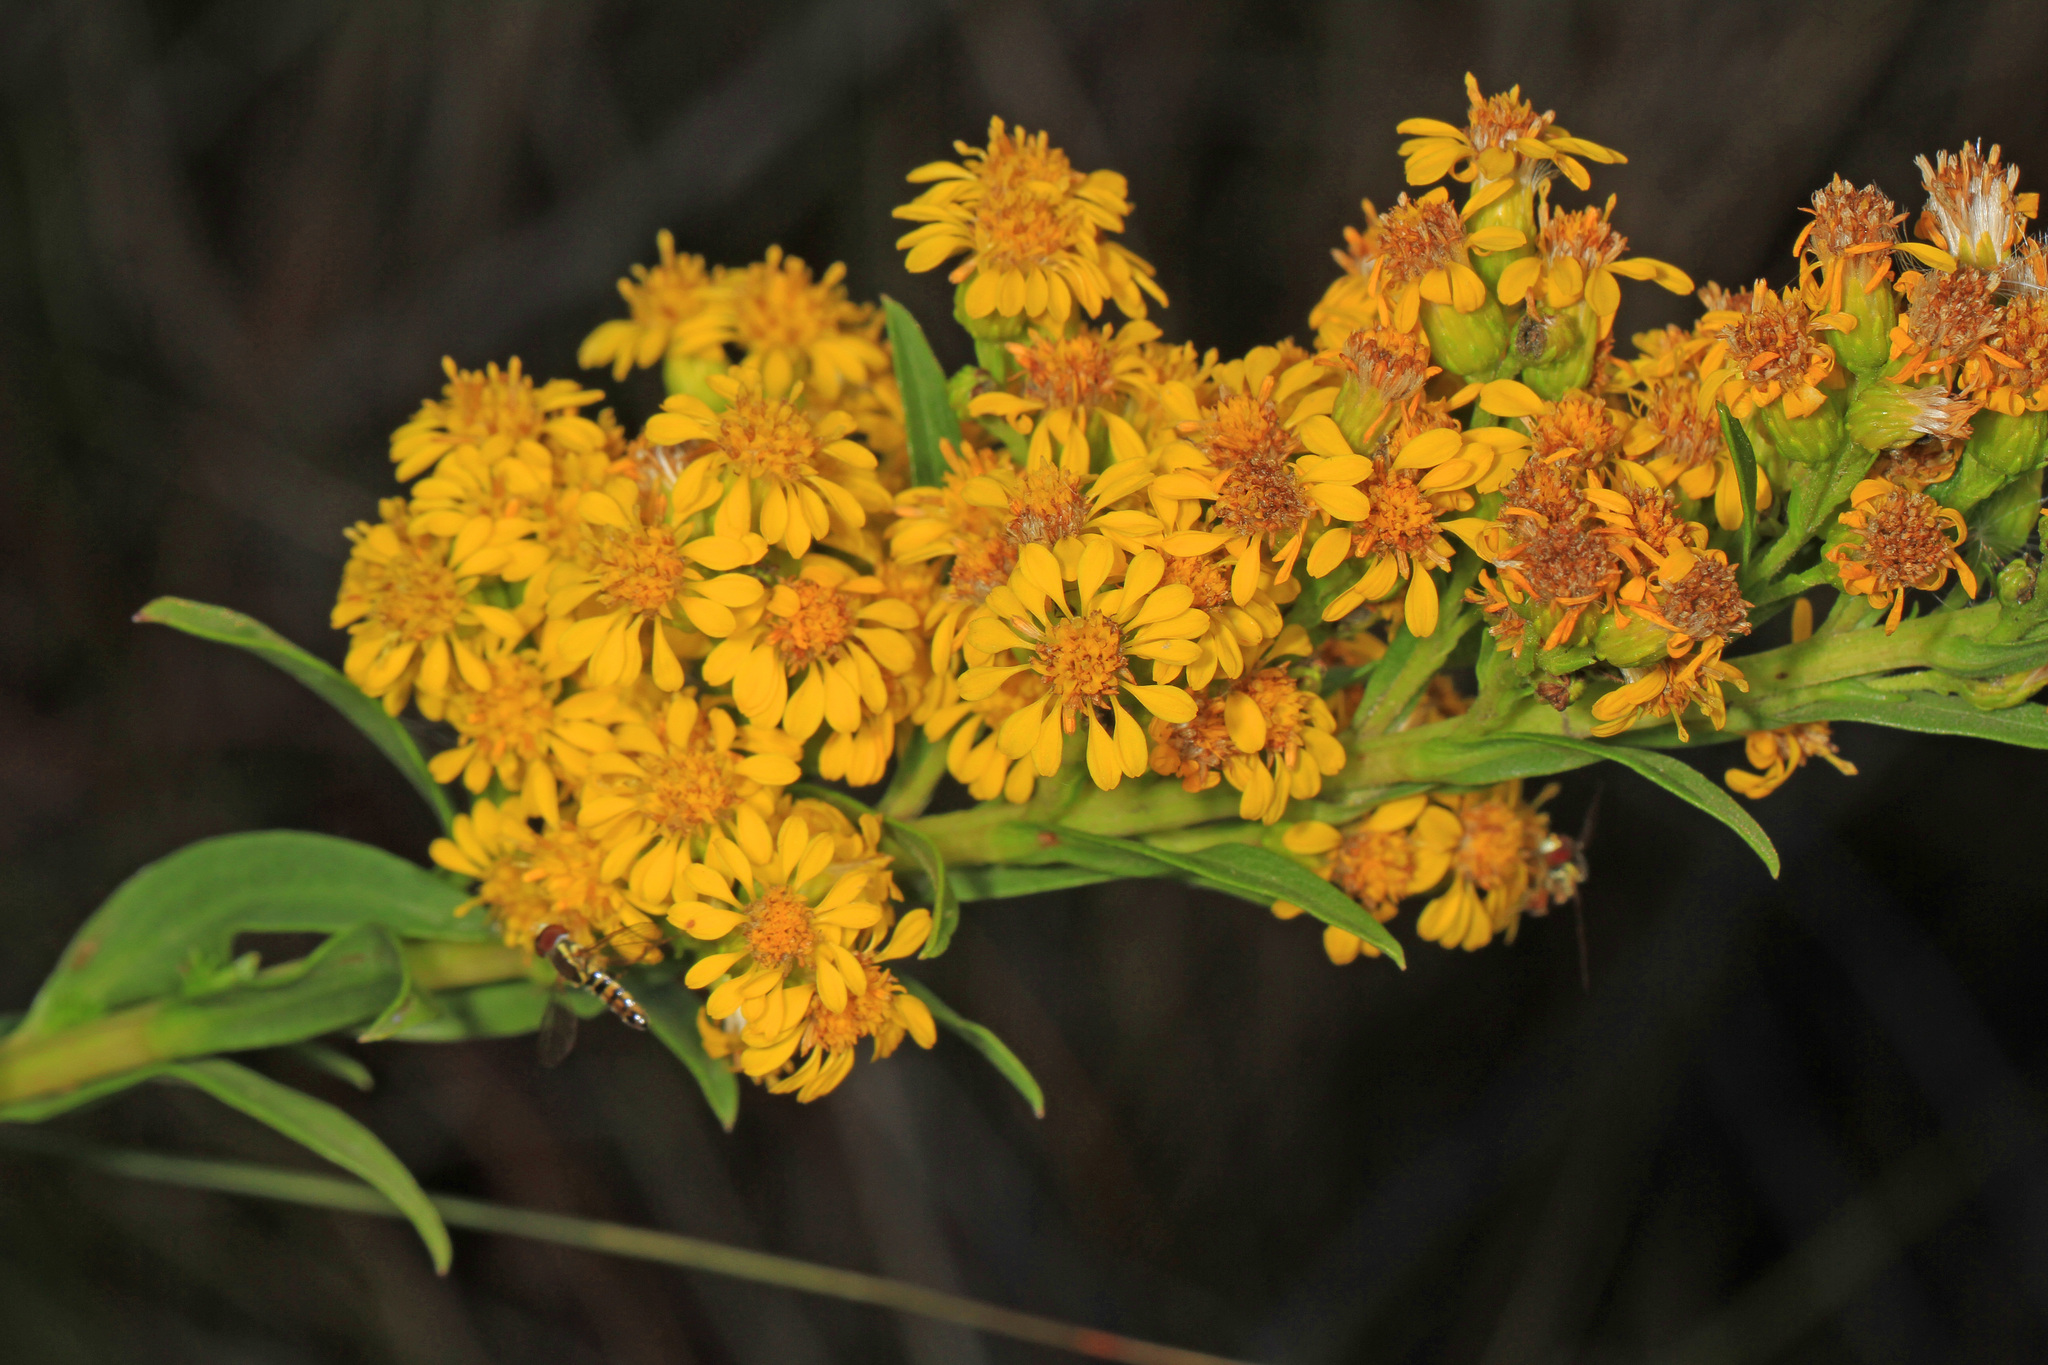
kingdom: Plantae
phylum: Tracheophyta
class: Magnoliopsida
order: Asterales
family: Asteraceae
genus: Solidago
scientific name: Solidago sempervirens
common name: Salt-marsh goldenrod
